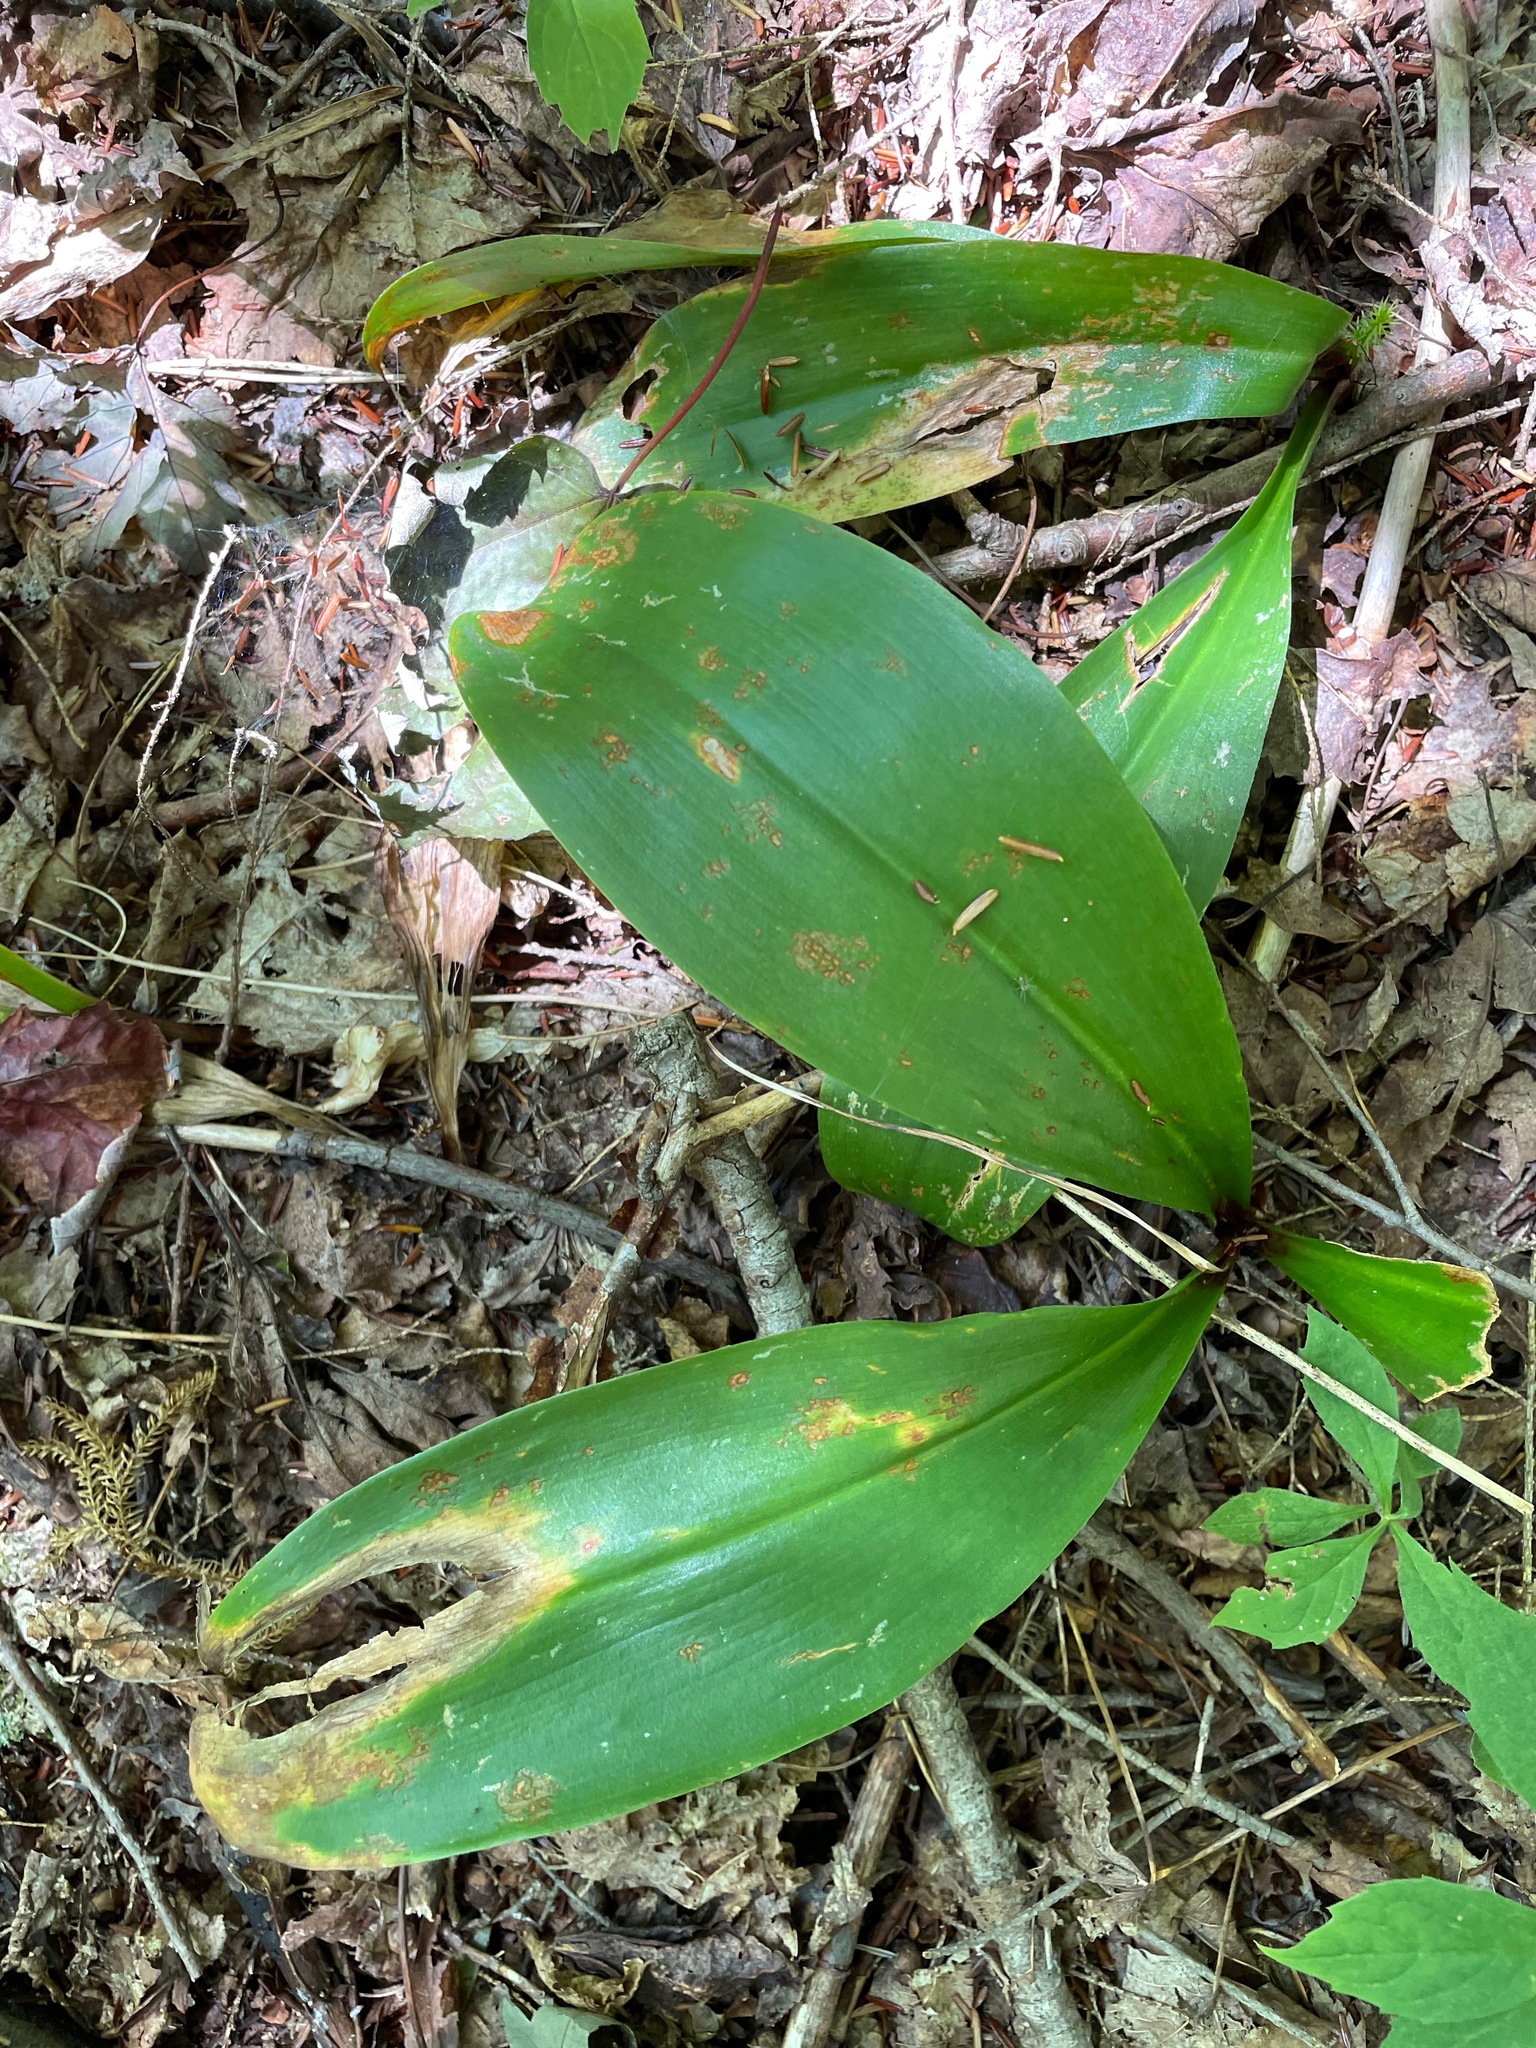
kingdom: Plantae
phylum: Tracheophyta
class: Liliopsida
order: Liliales
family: Liliaceae
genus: Clintonia
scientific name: Clintonia borealis
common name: Yellow clintonia
